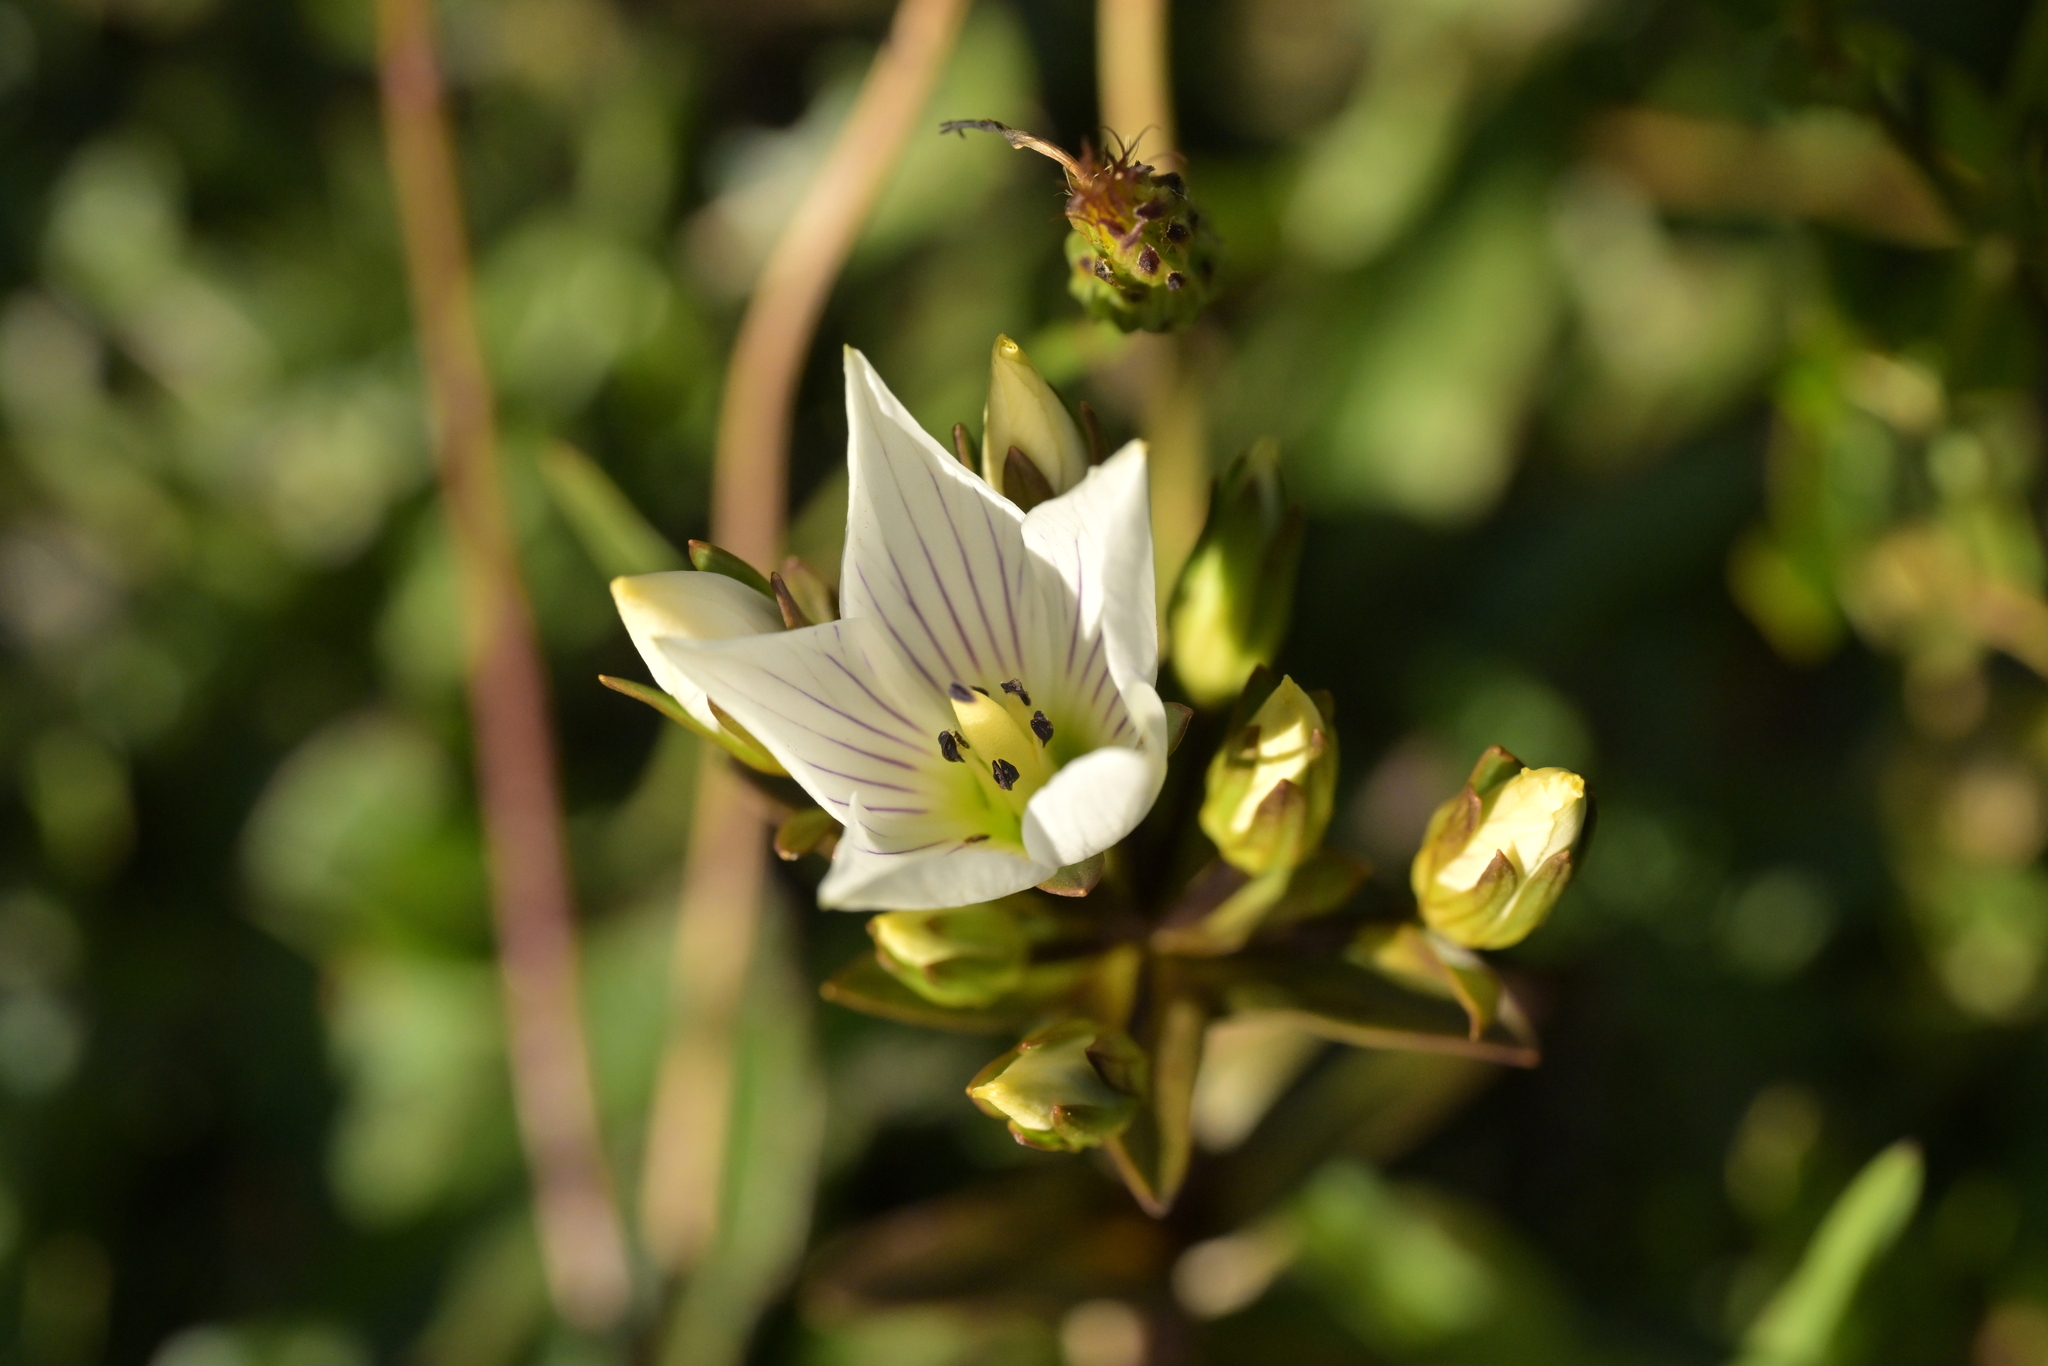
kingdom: Plantae
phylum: Tracheophyta
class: Magnoliopsida
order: Gentianales
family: Gentianaceae
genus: Gentianella
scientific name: Gentianella bellidifolia
